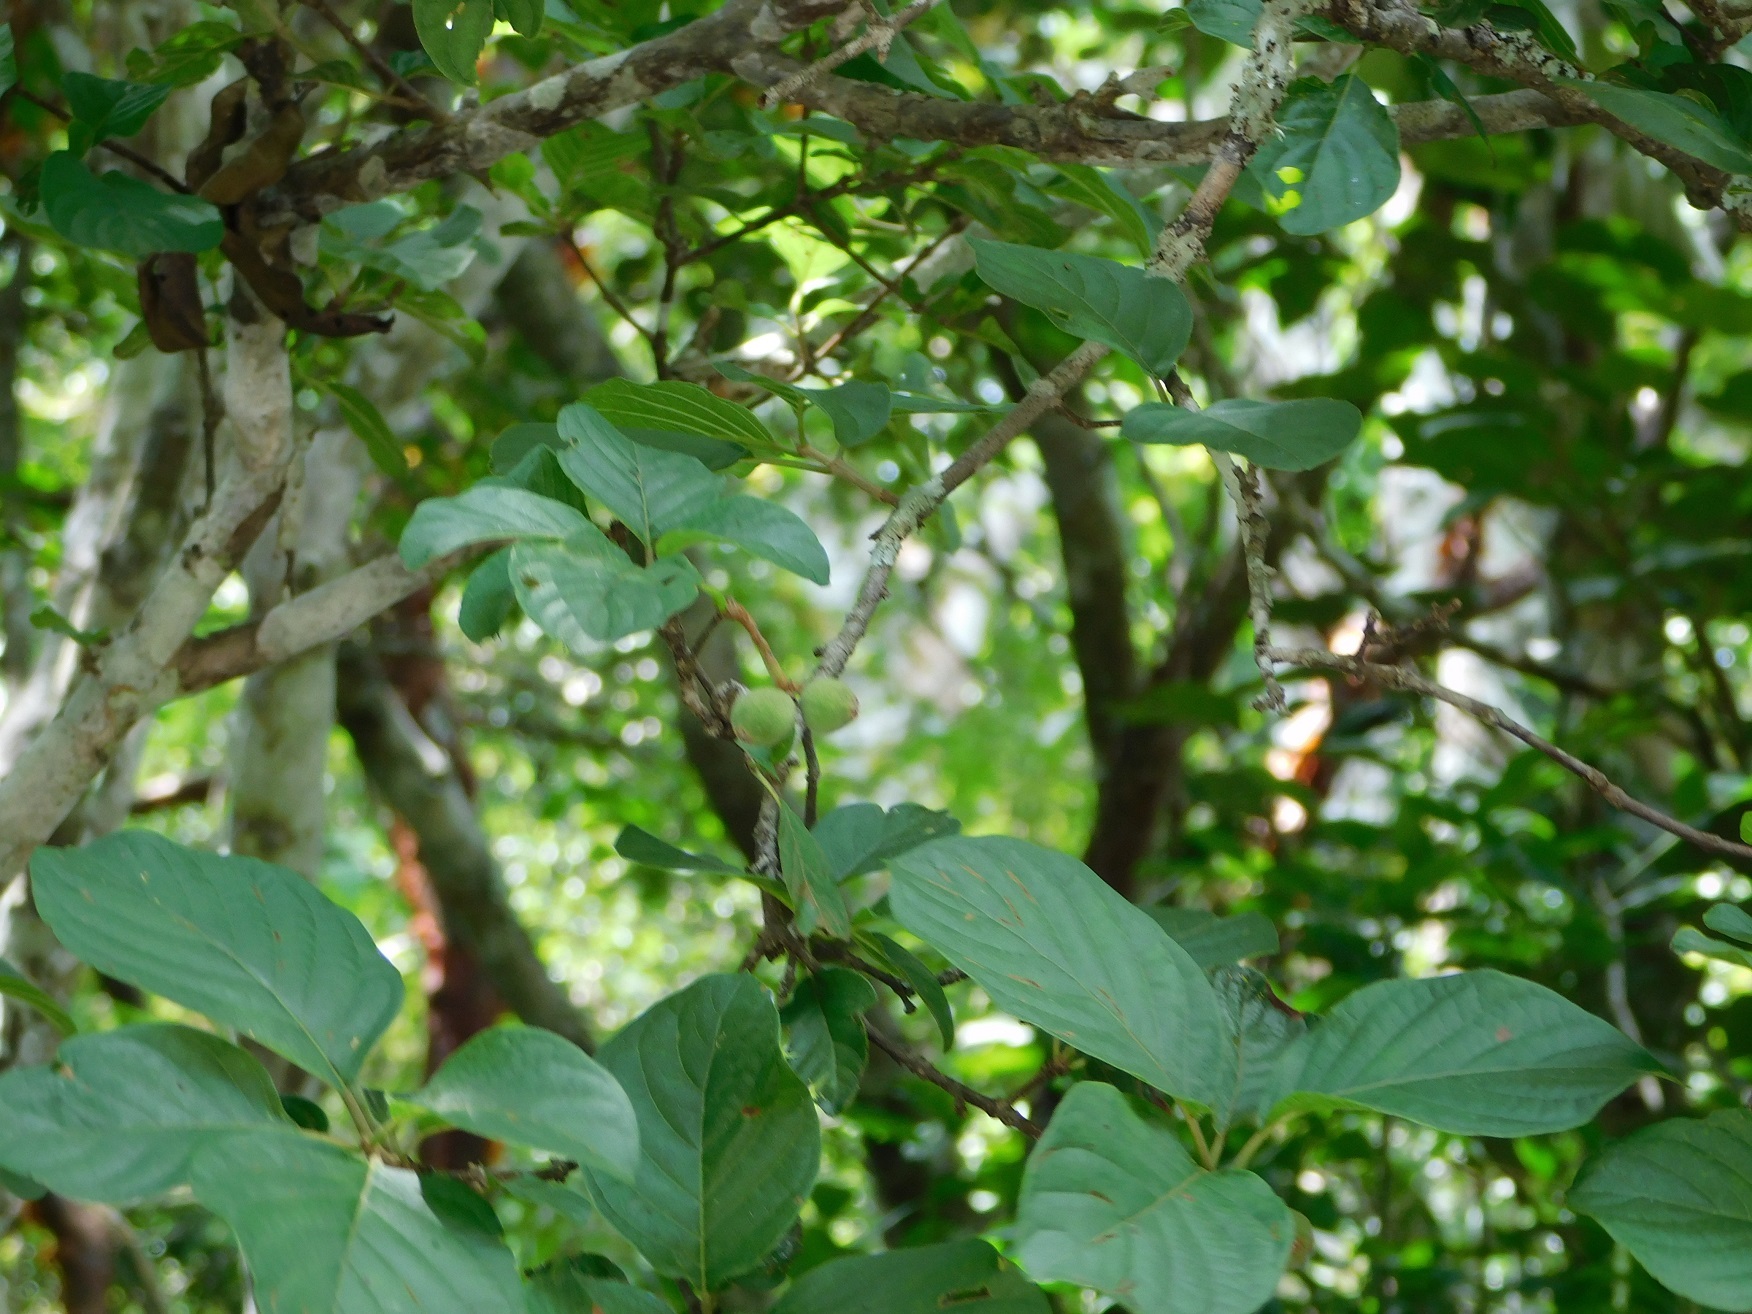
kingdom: Plantae
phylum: Tracheophyta
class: Magnoliopsida
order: Gentianales
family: Rubiaceae
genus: Guettarda
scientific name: Guettarda macrosperma
